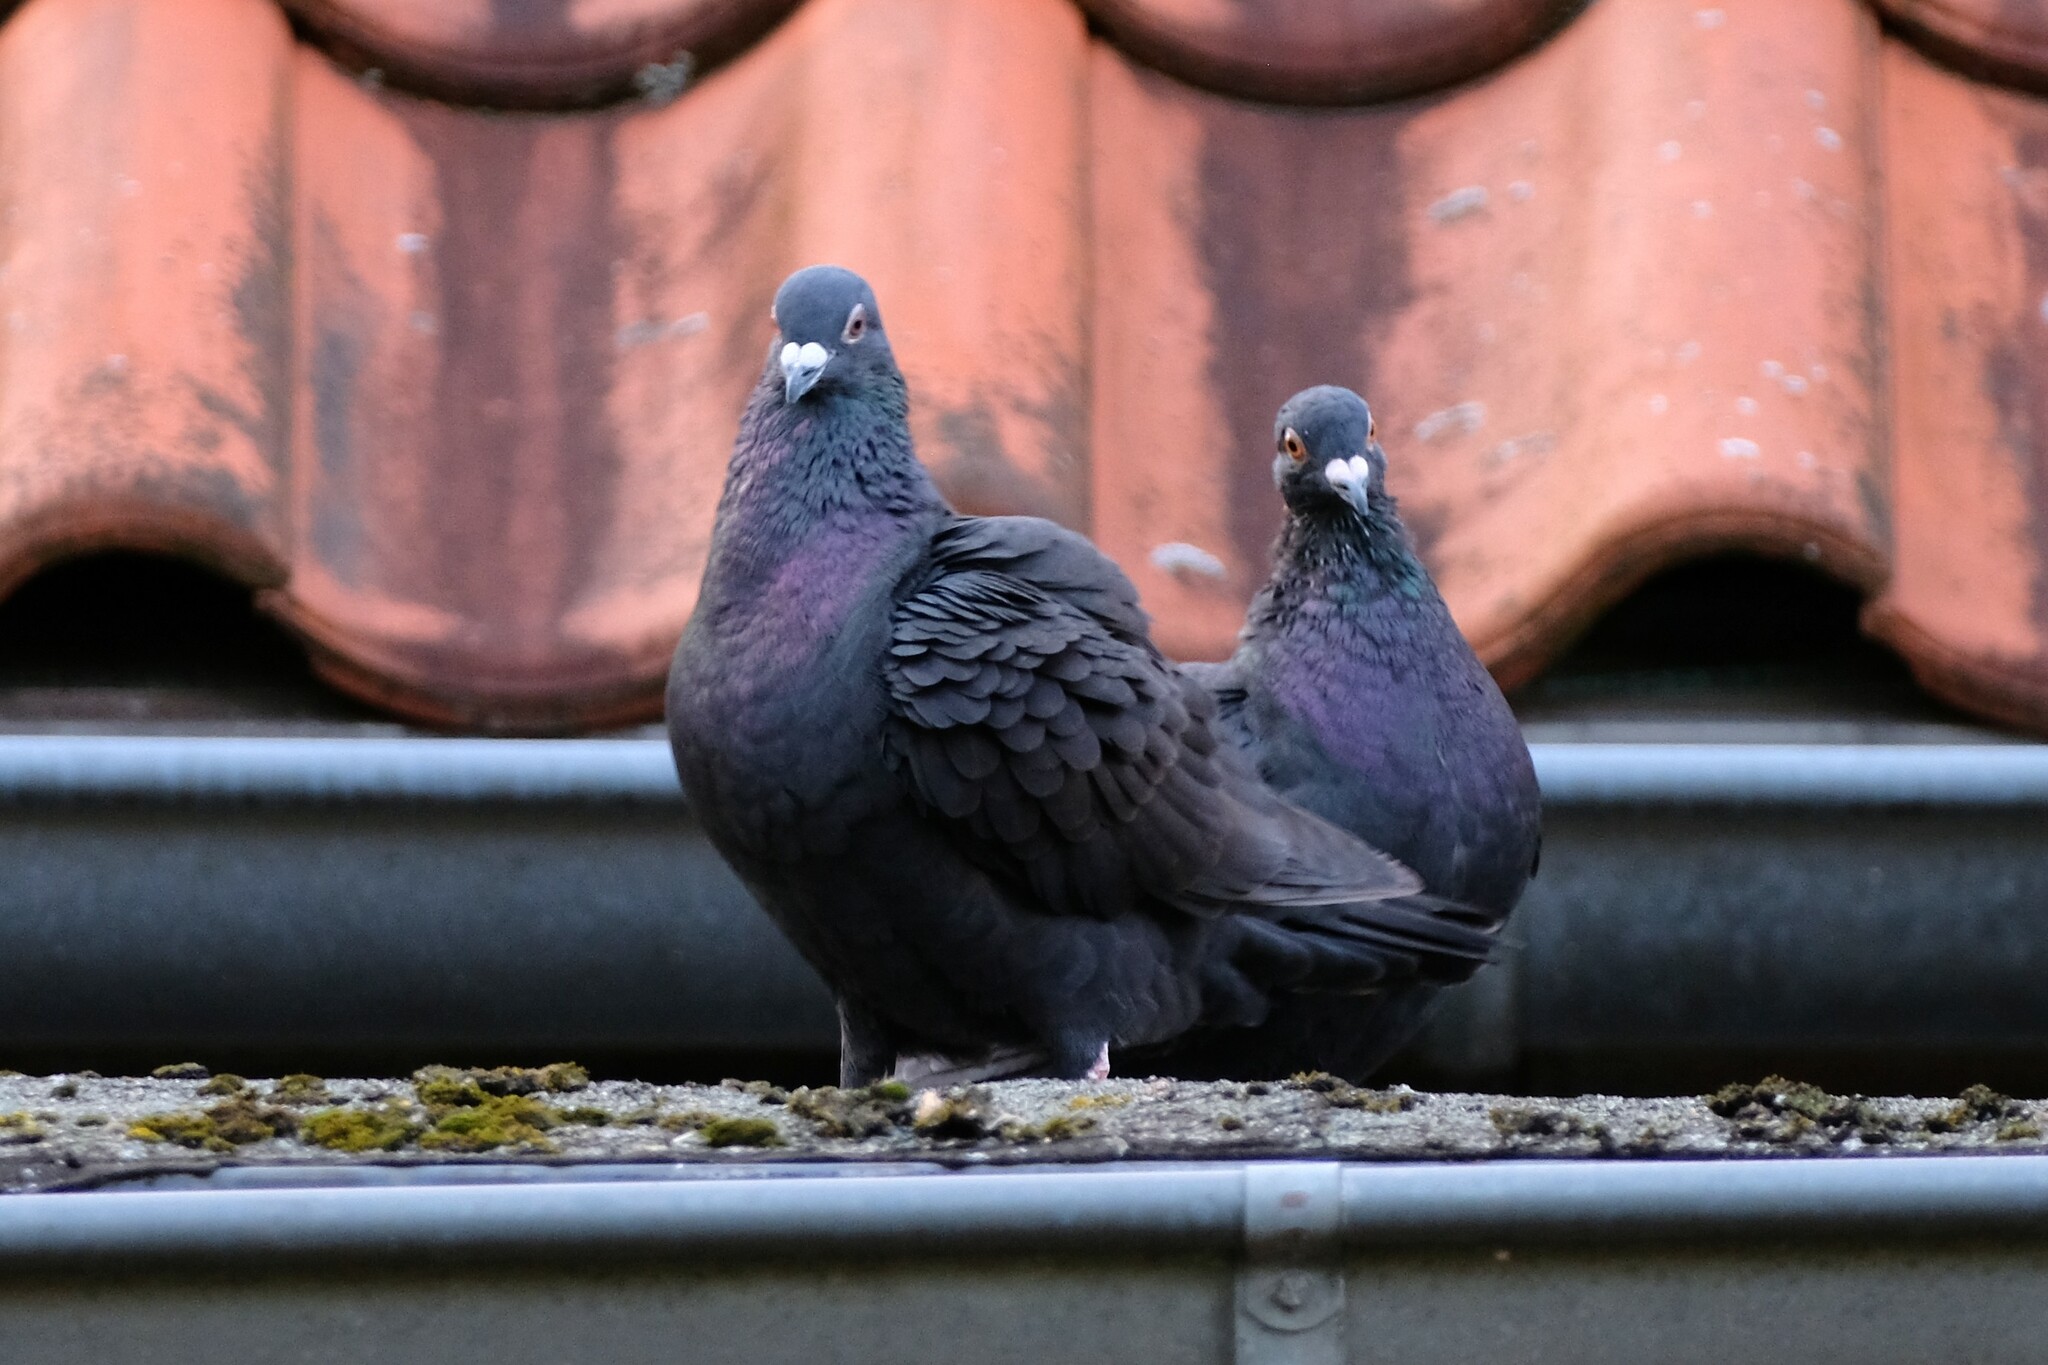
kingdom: Animalia
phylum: Chordata
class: Aves
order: Columbiformes
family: Columbidae
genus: Columba
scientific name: Columba livia
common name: Rock pigeon
